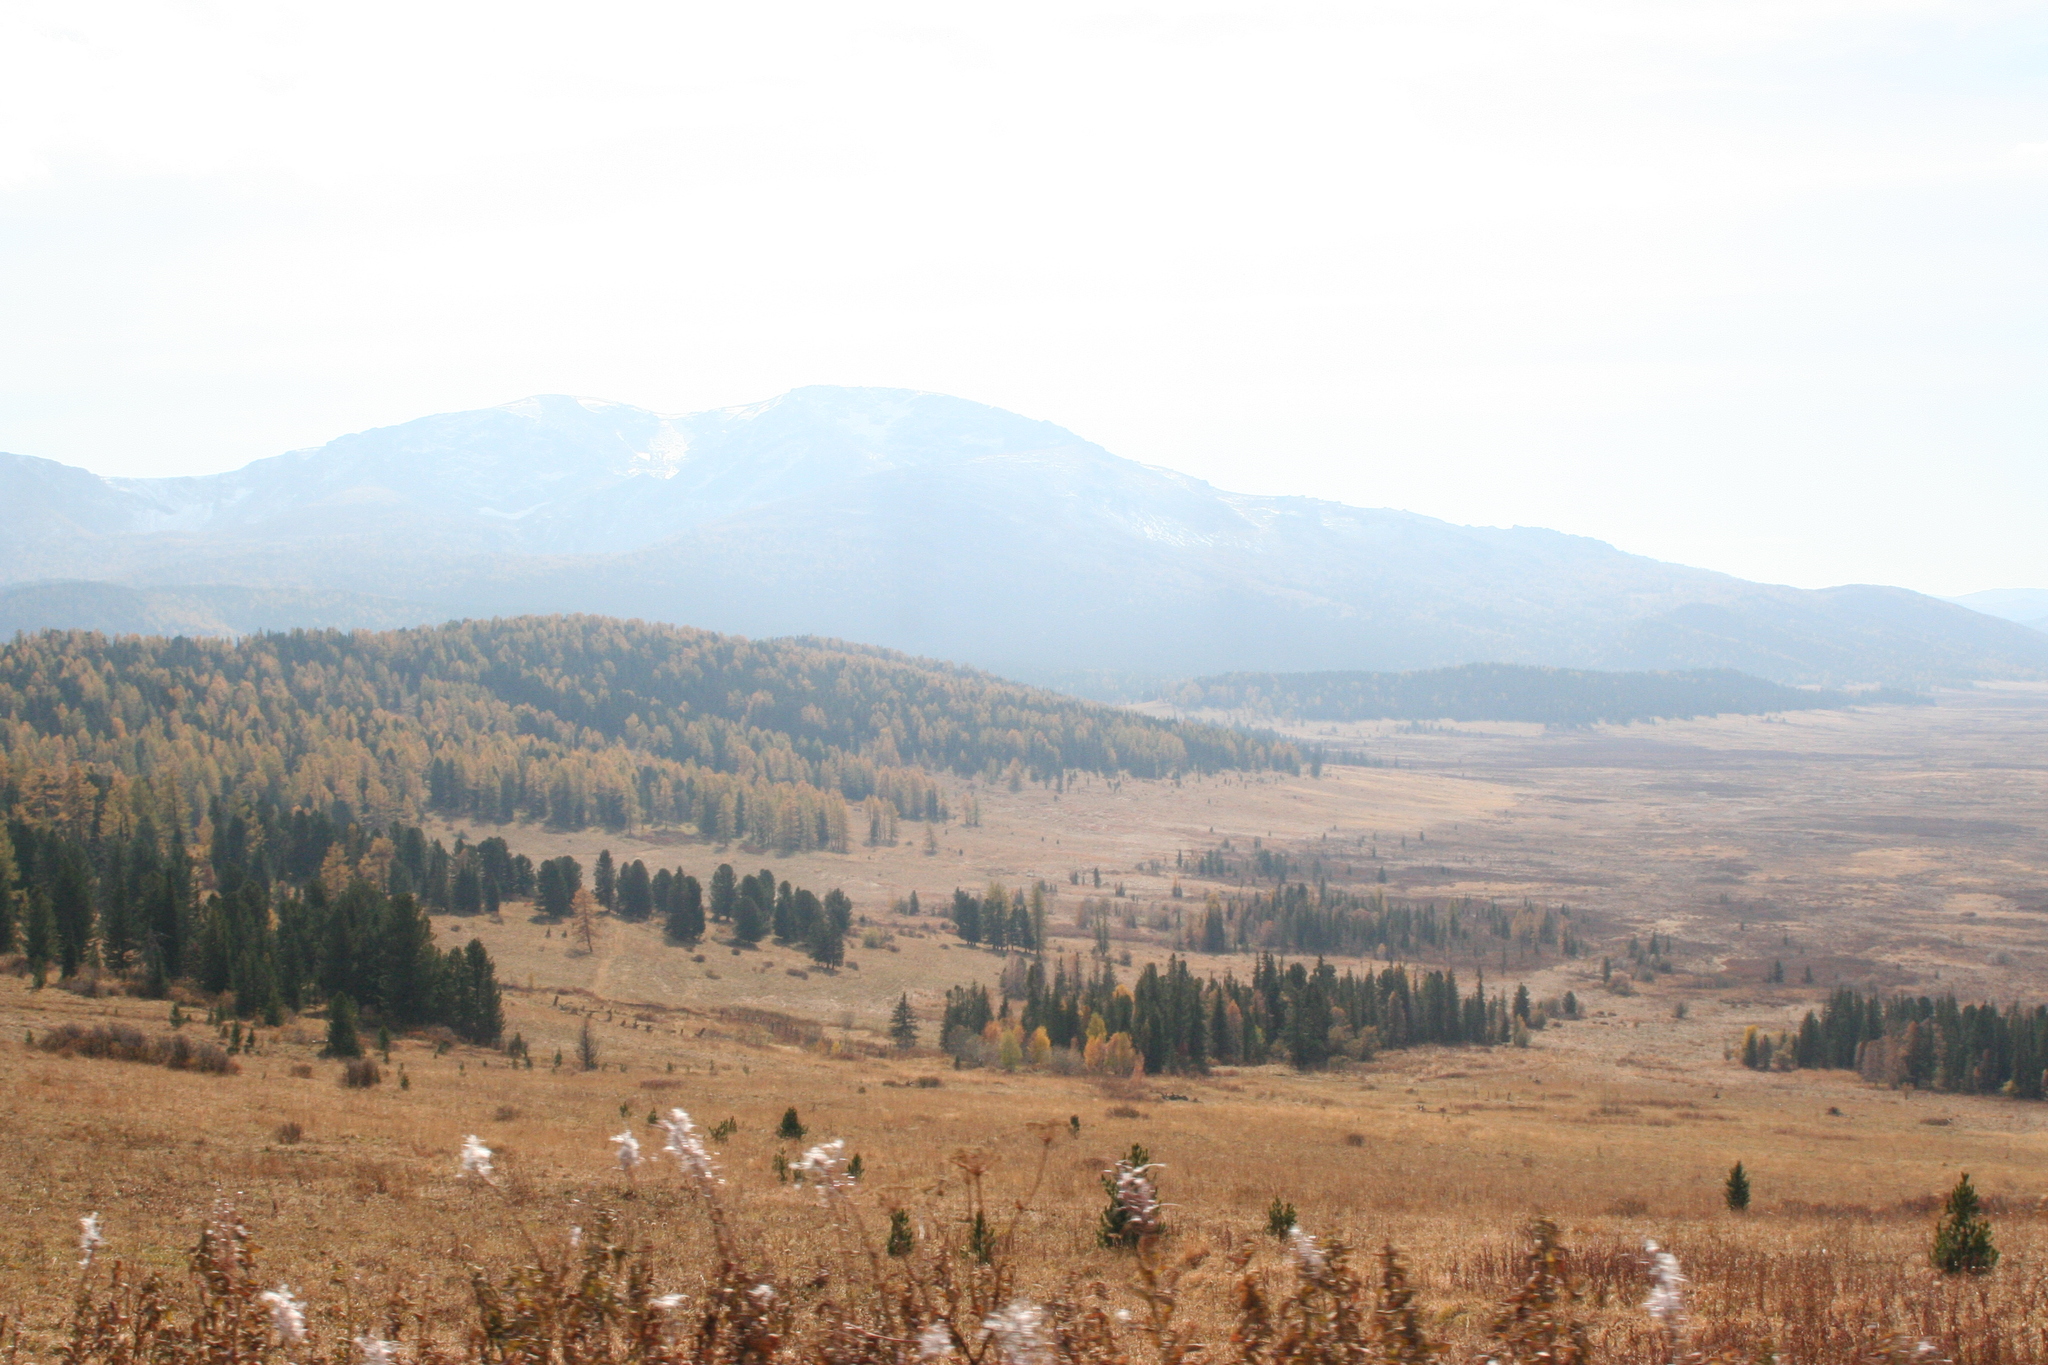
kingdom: Plantae
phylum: Tracheophyta
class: Pinopsida
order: Pinales
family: Pinaceae
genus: Pinus
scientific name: Pinus sibirica
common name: Siberian pine
